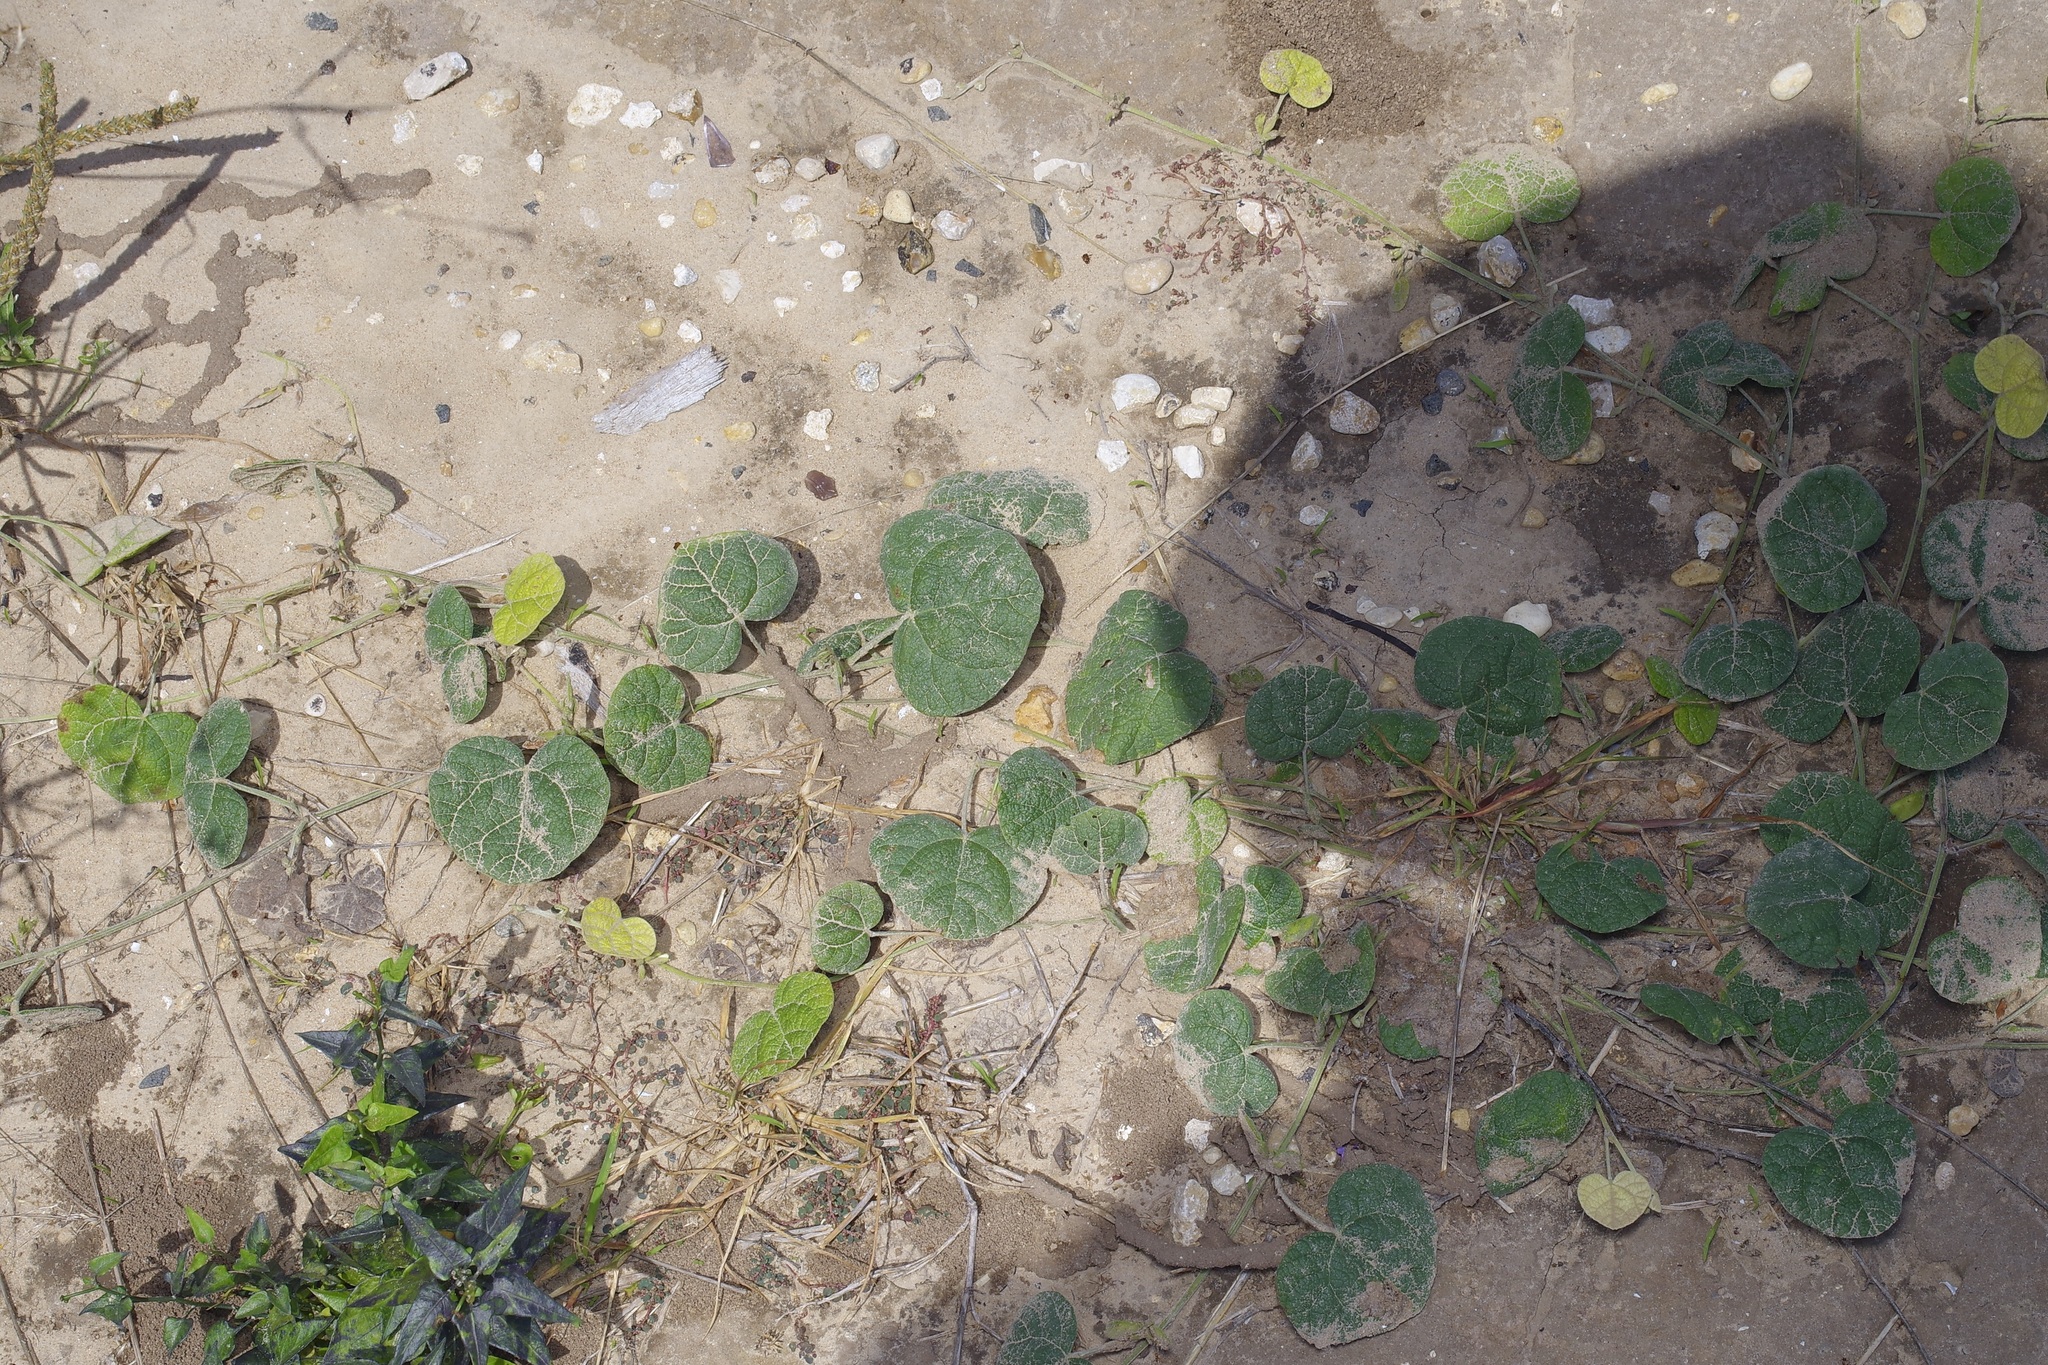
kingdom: Plantae
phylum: Tracheophyta
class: Magnoliopsida
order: Fabales
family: Fabaceae
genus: Rhynchosia
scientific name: Rhynchosia americana
